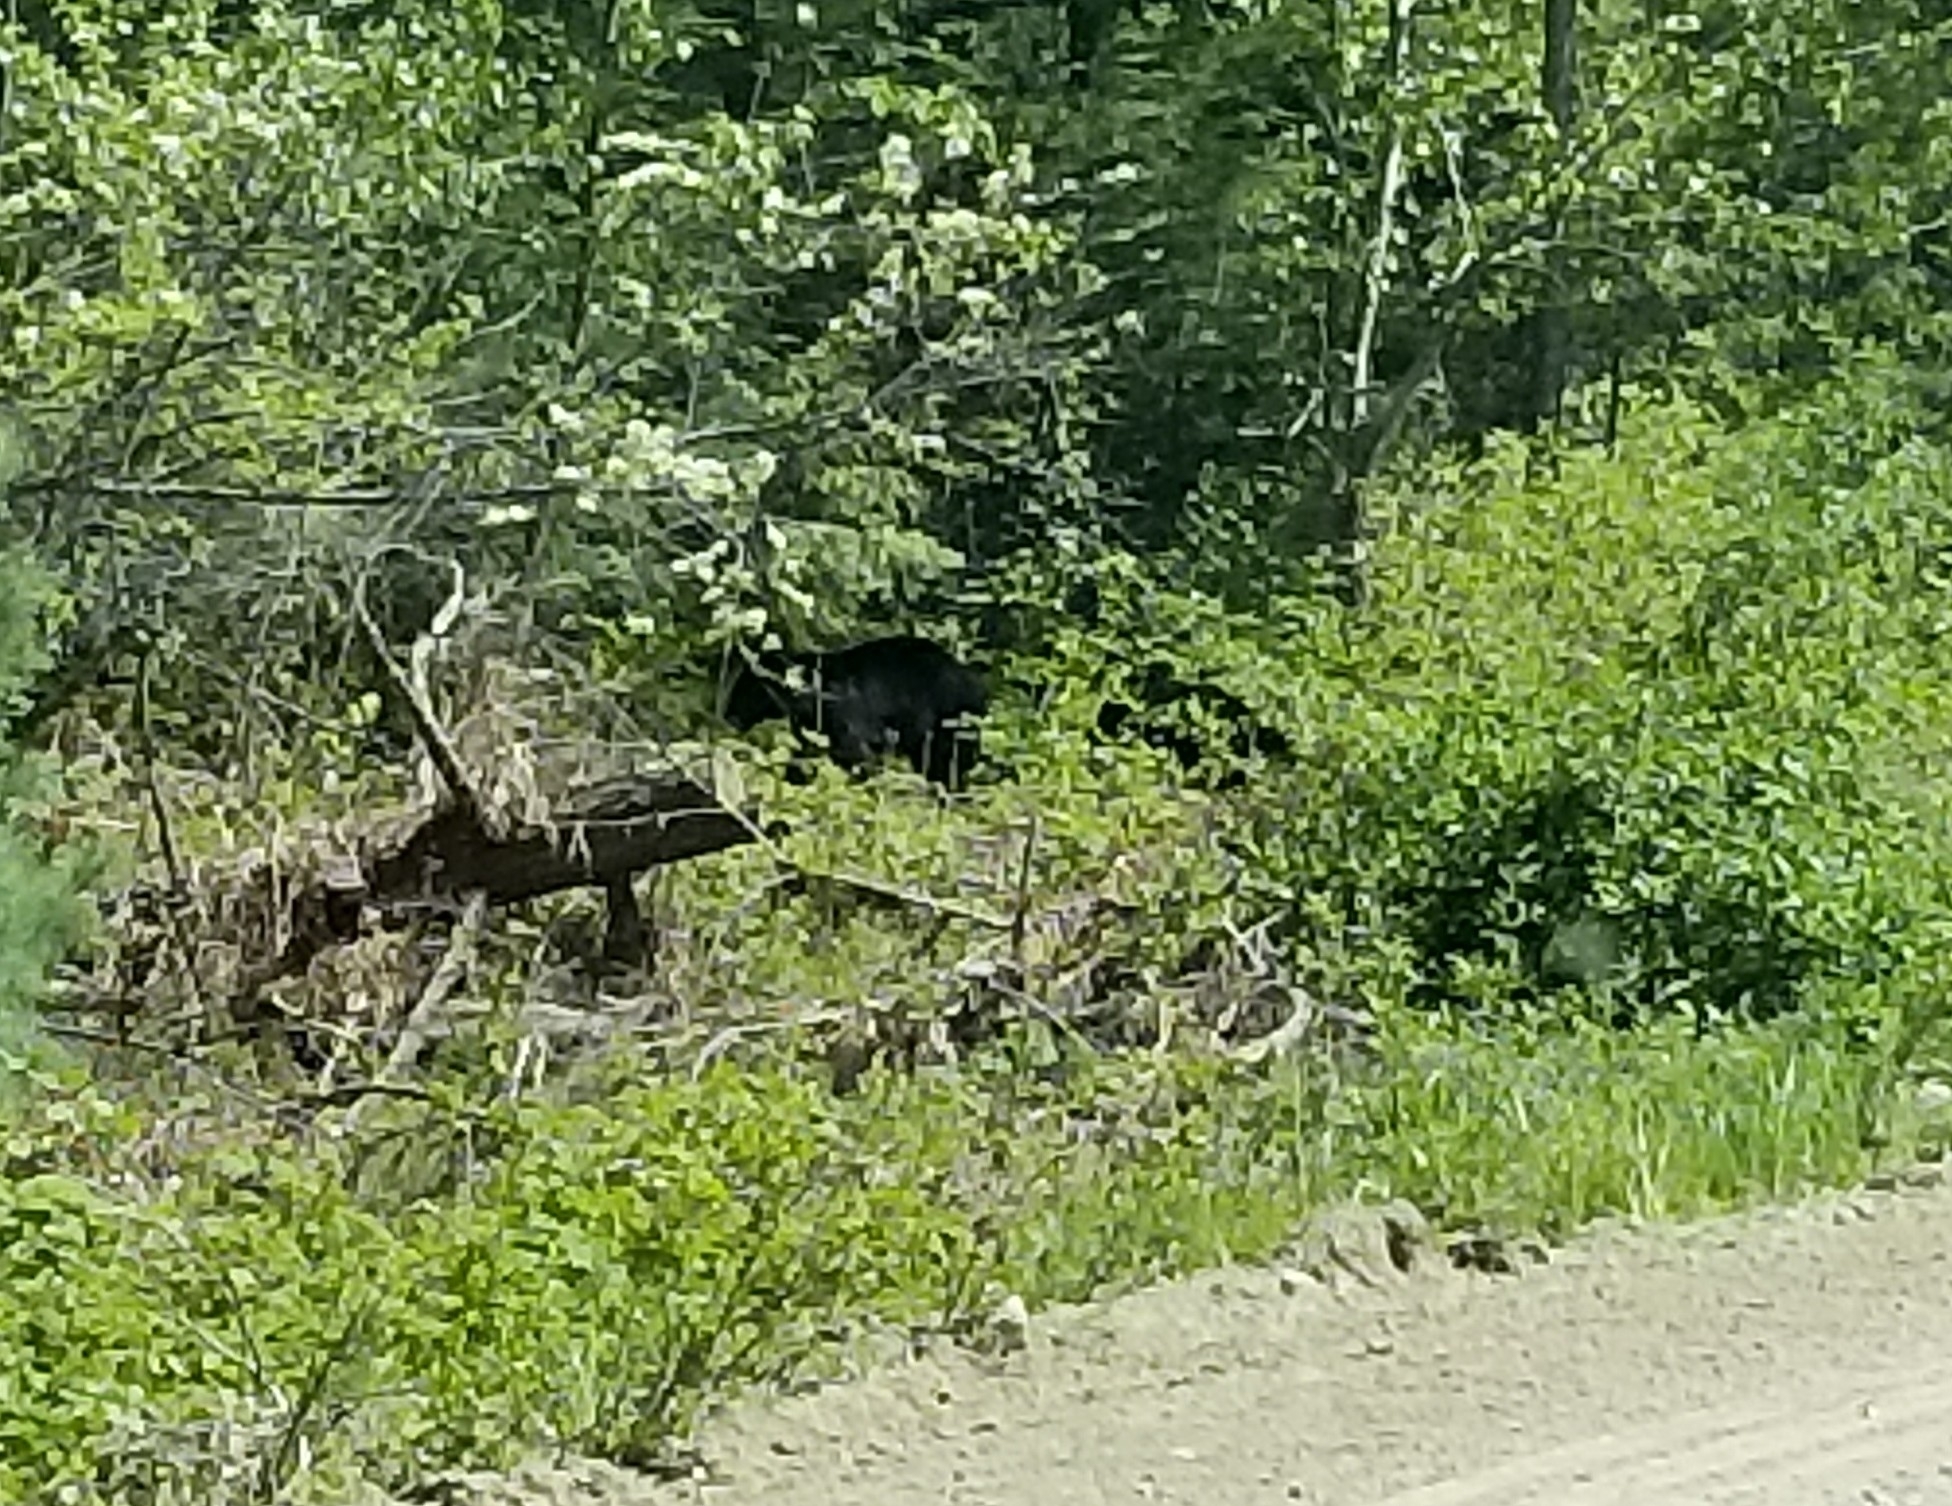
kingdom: Animalia
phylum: Chordata
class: Mammalia
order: Carnivora
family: Ursidae
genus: Ursus
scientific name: Ursus americanus
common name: American black bear
